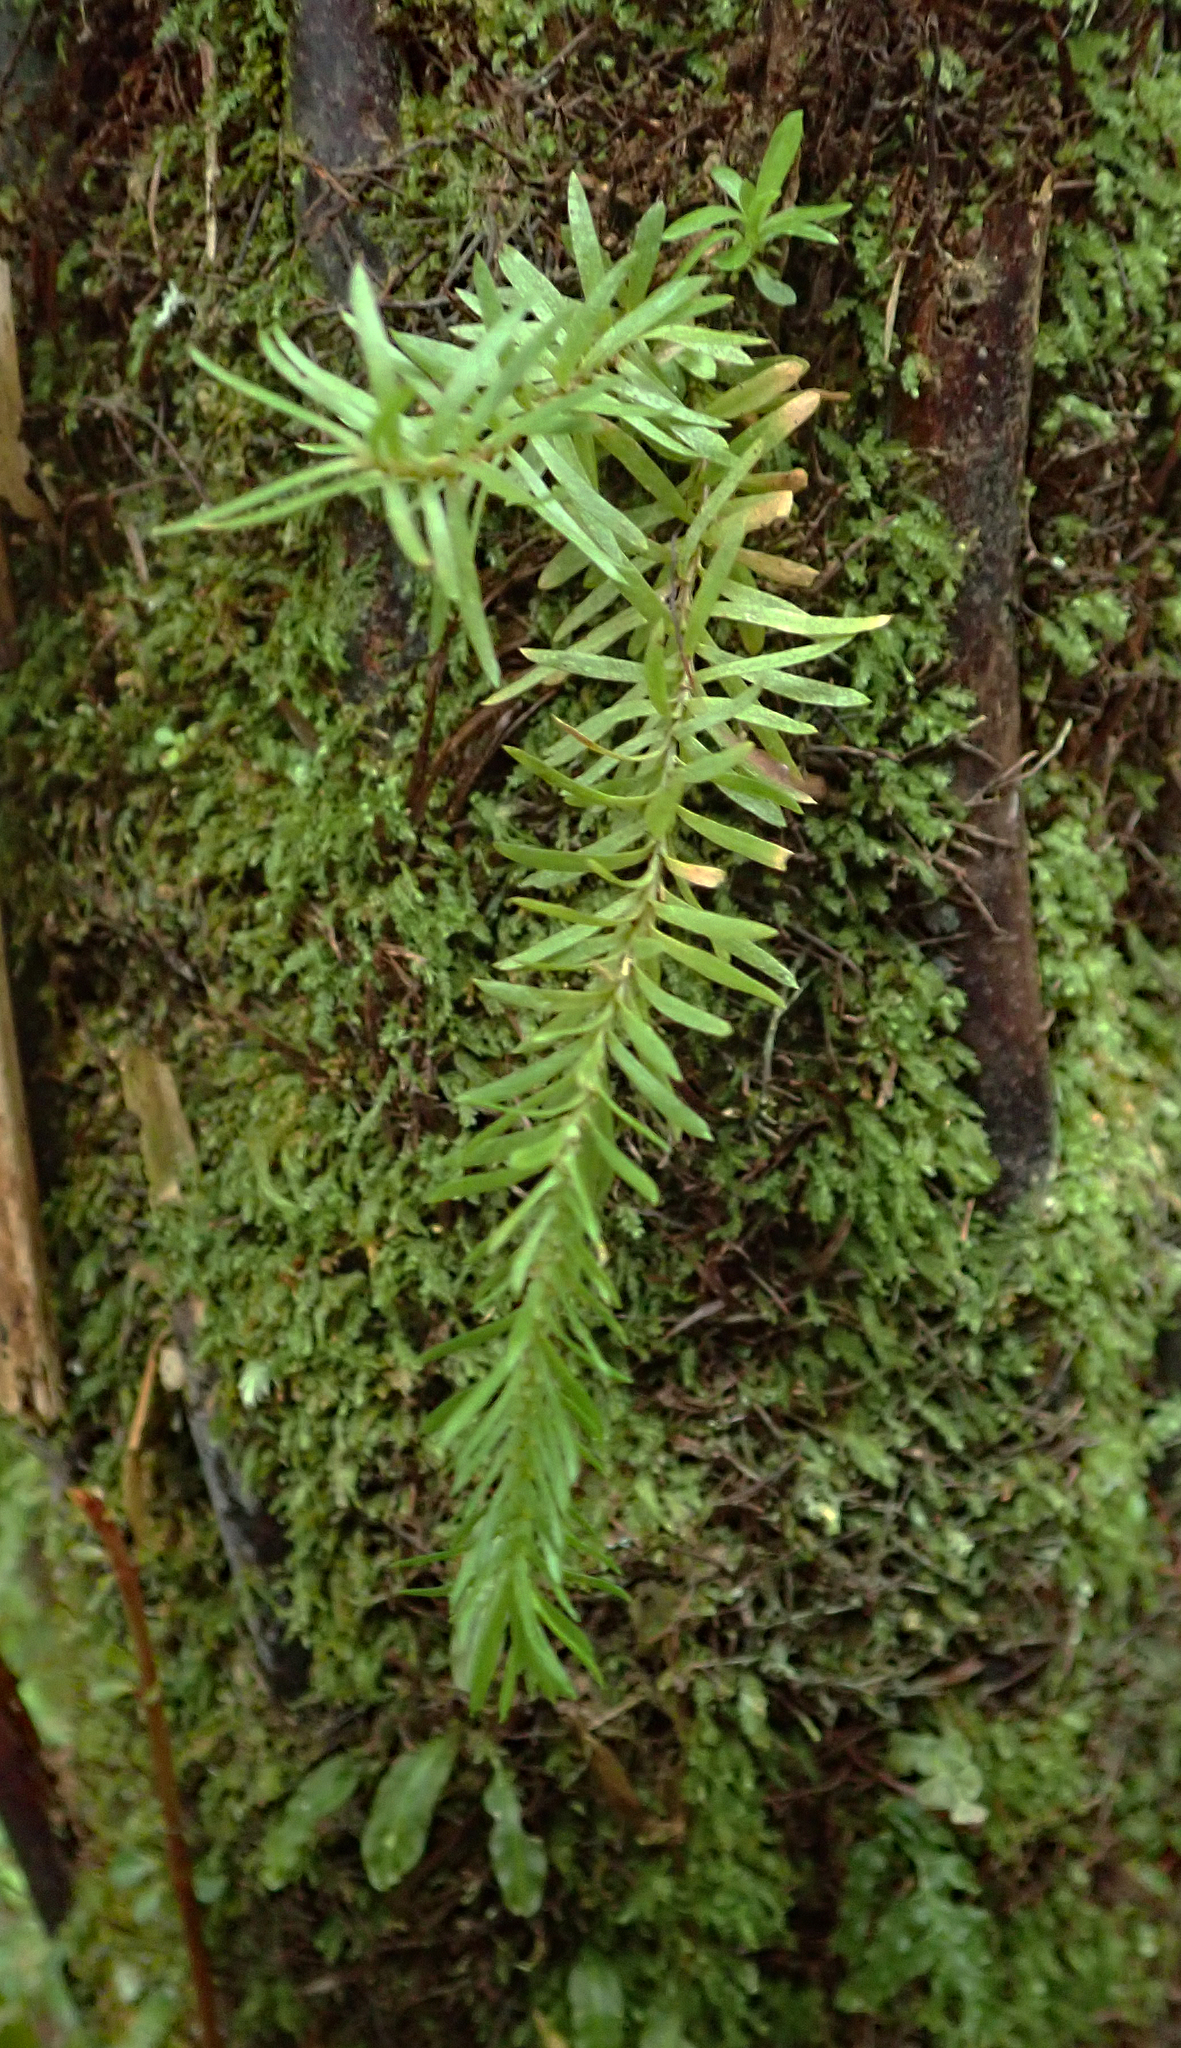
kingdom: Plantae
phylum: Tracheophyta
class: Lycopodiopsida
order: Lycopodiales
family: Lycopodiaceae
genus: Phlegmariurus
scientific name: Phlegmariurus varius
